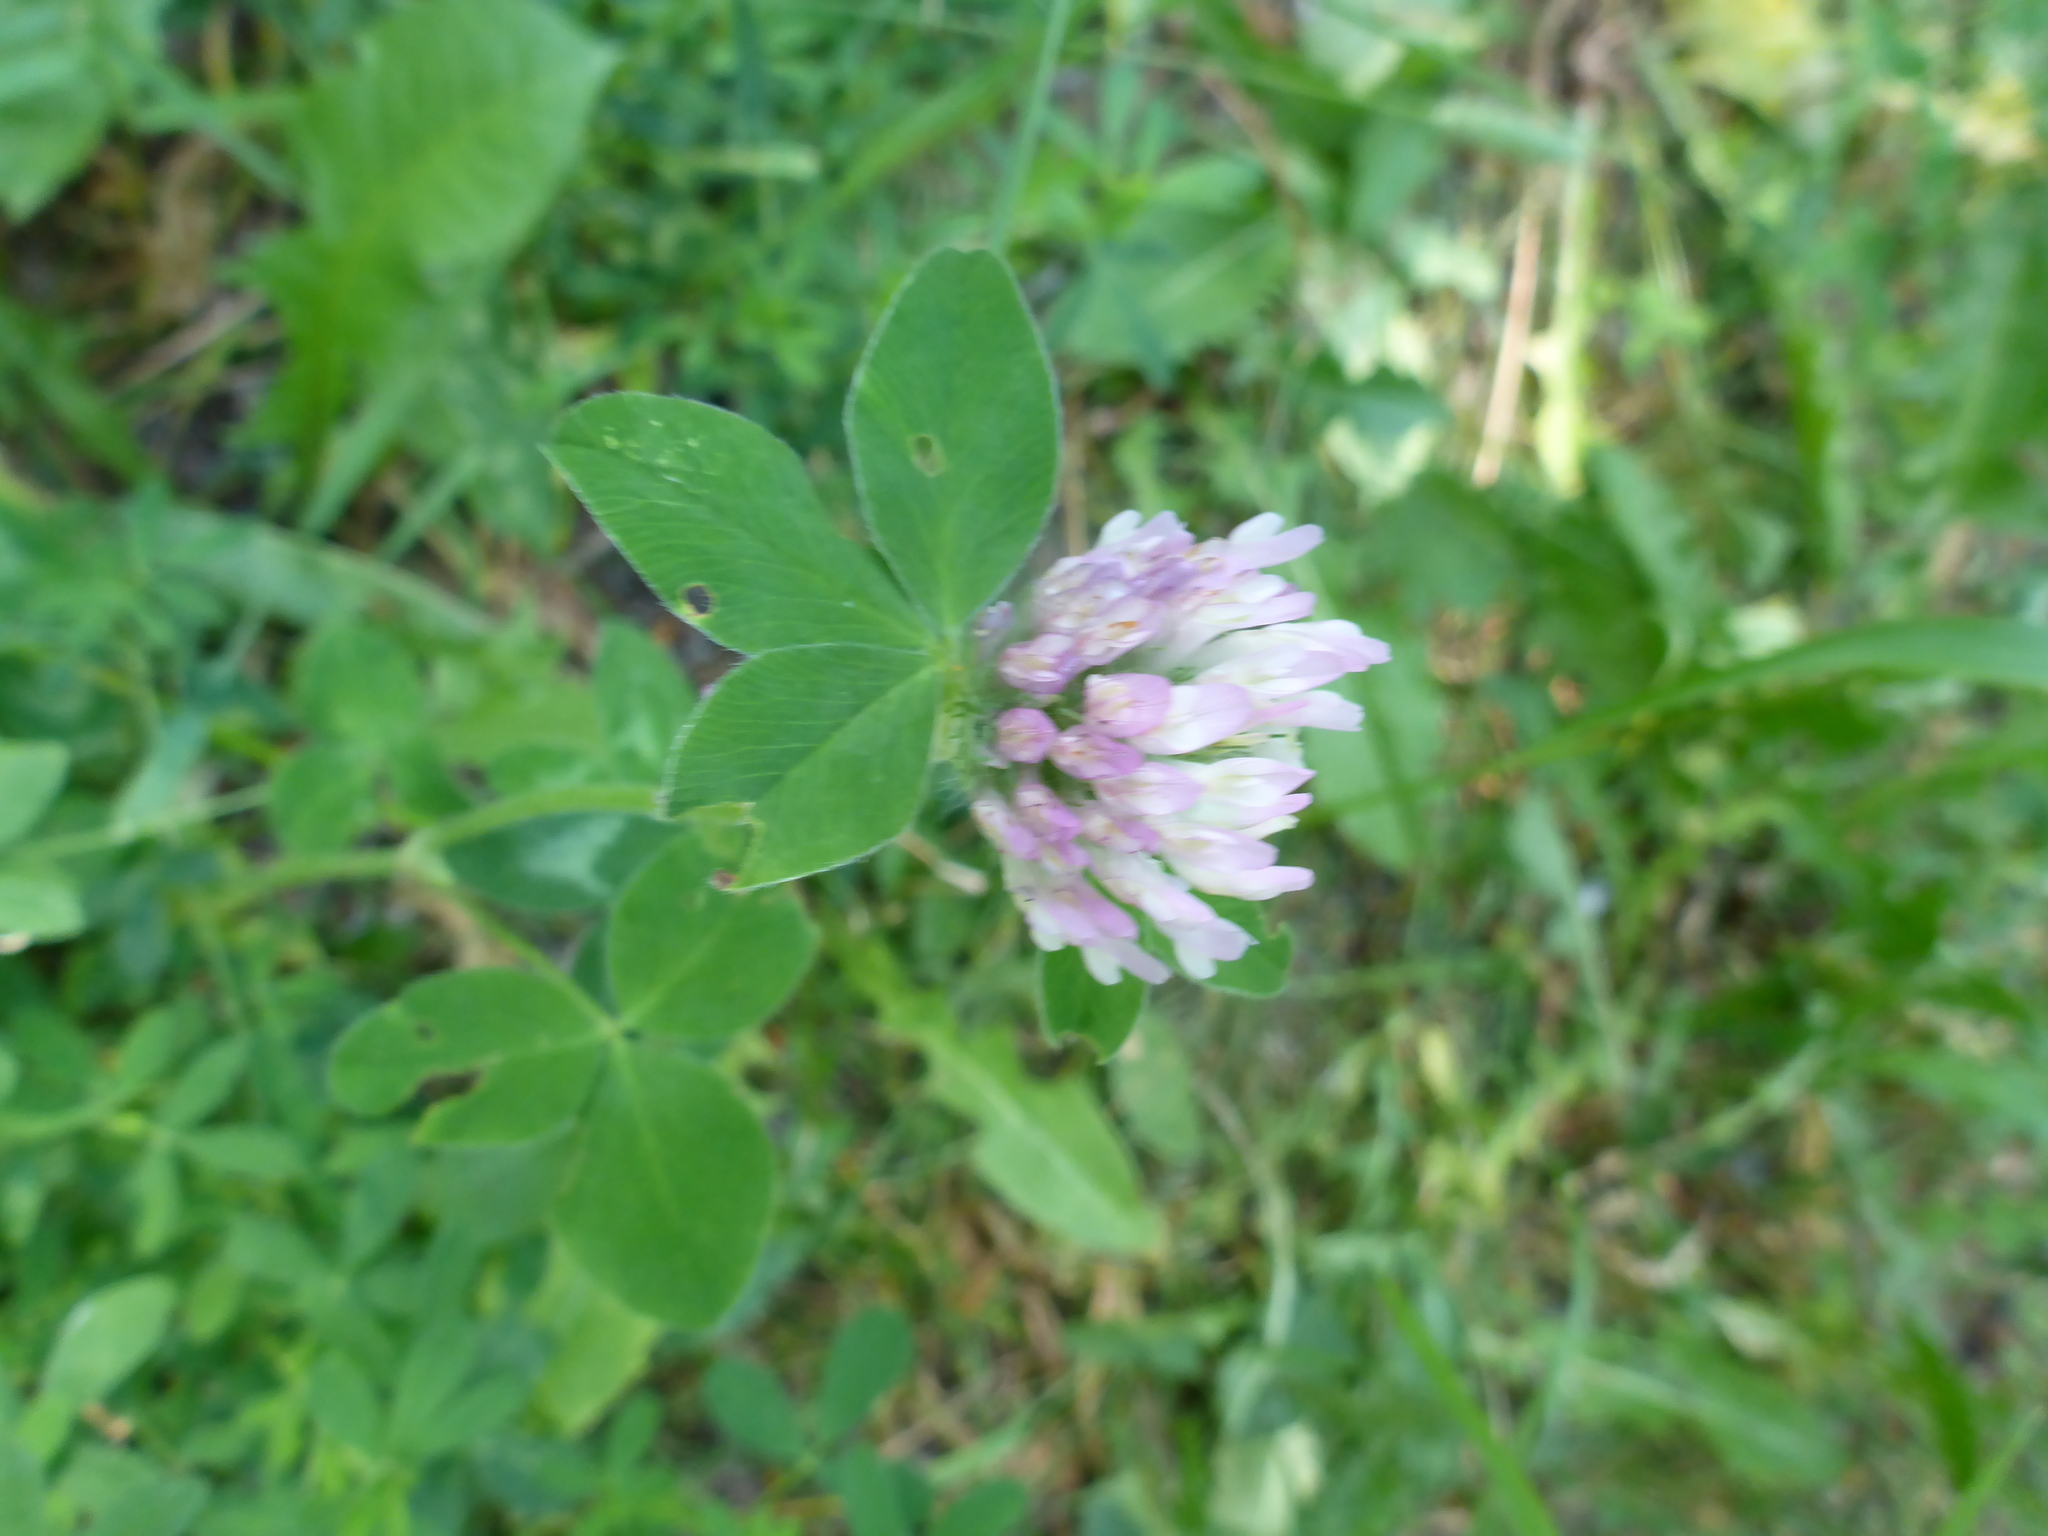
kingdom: Plantae
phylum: Tracheophyta
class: Magnoliopsida
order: Fabales
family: Fabaceae
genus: Trifolium
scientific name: Trifolium pratense
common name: Red clover
